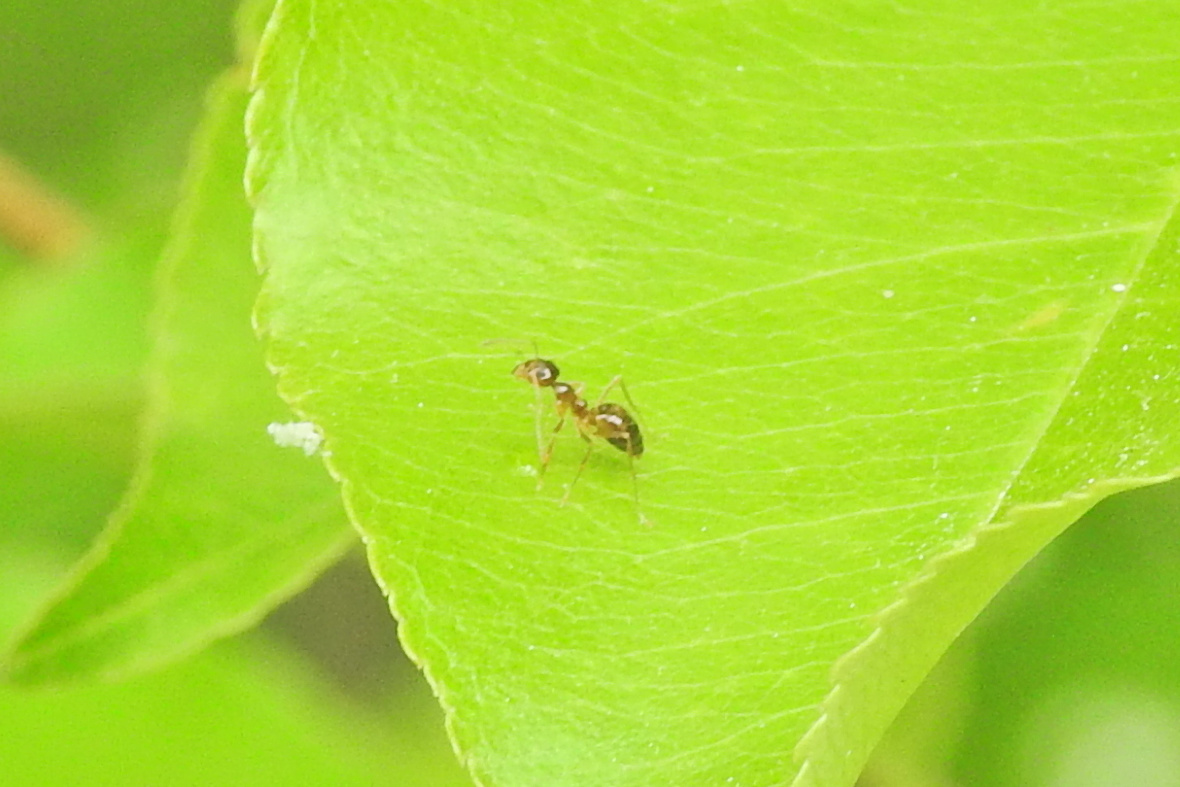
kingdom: Animalia
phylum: Arthropoda
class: Insecta
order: Hymenoptera
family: Formicidae
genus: Prenolepis
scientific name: Prenolepis imparis
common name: Small honey ant
